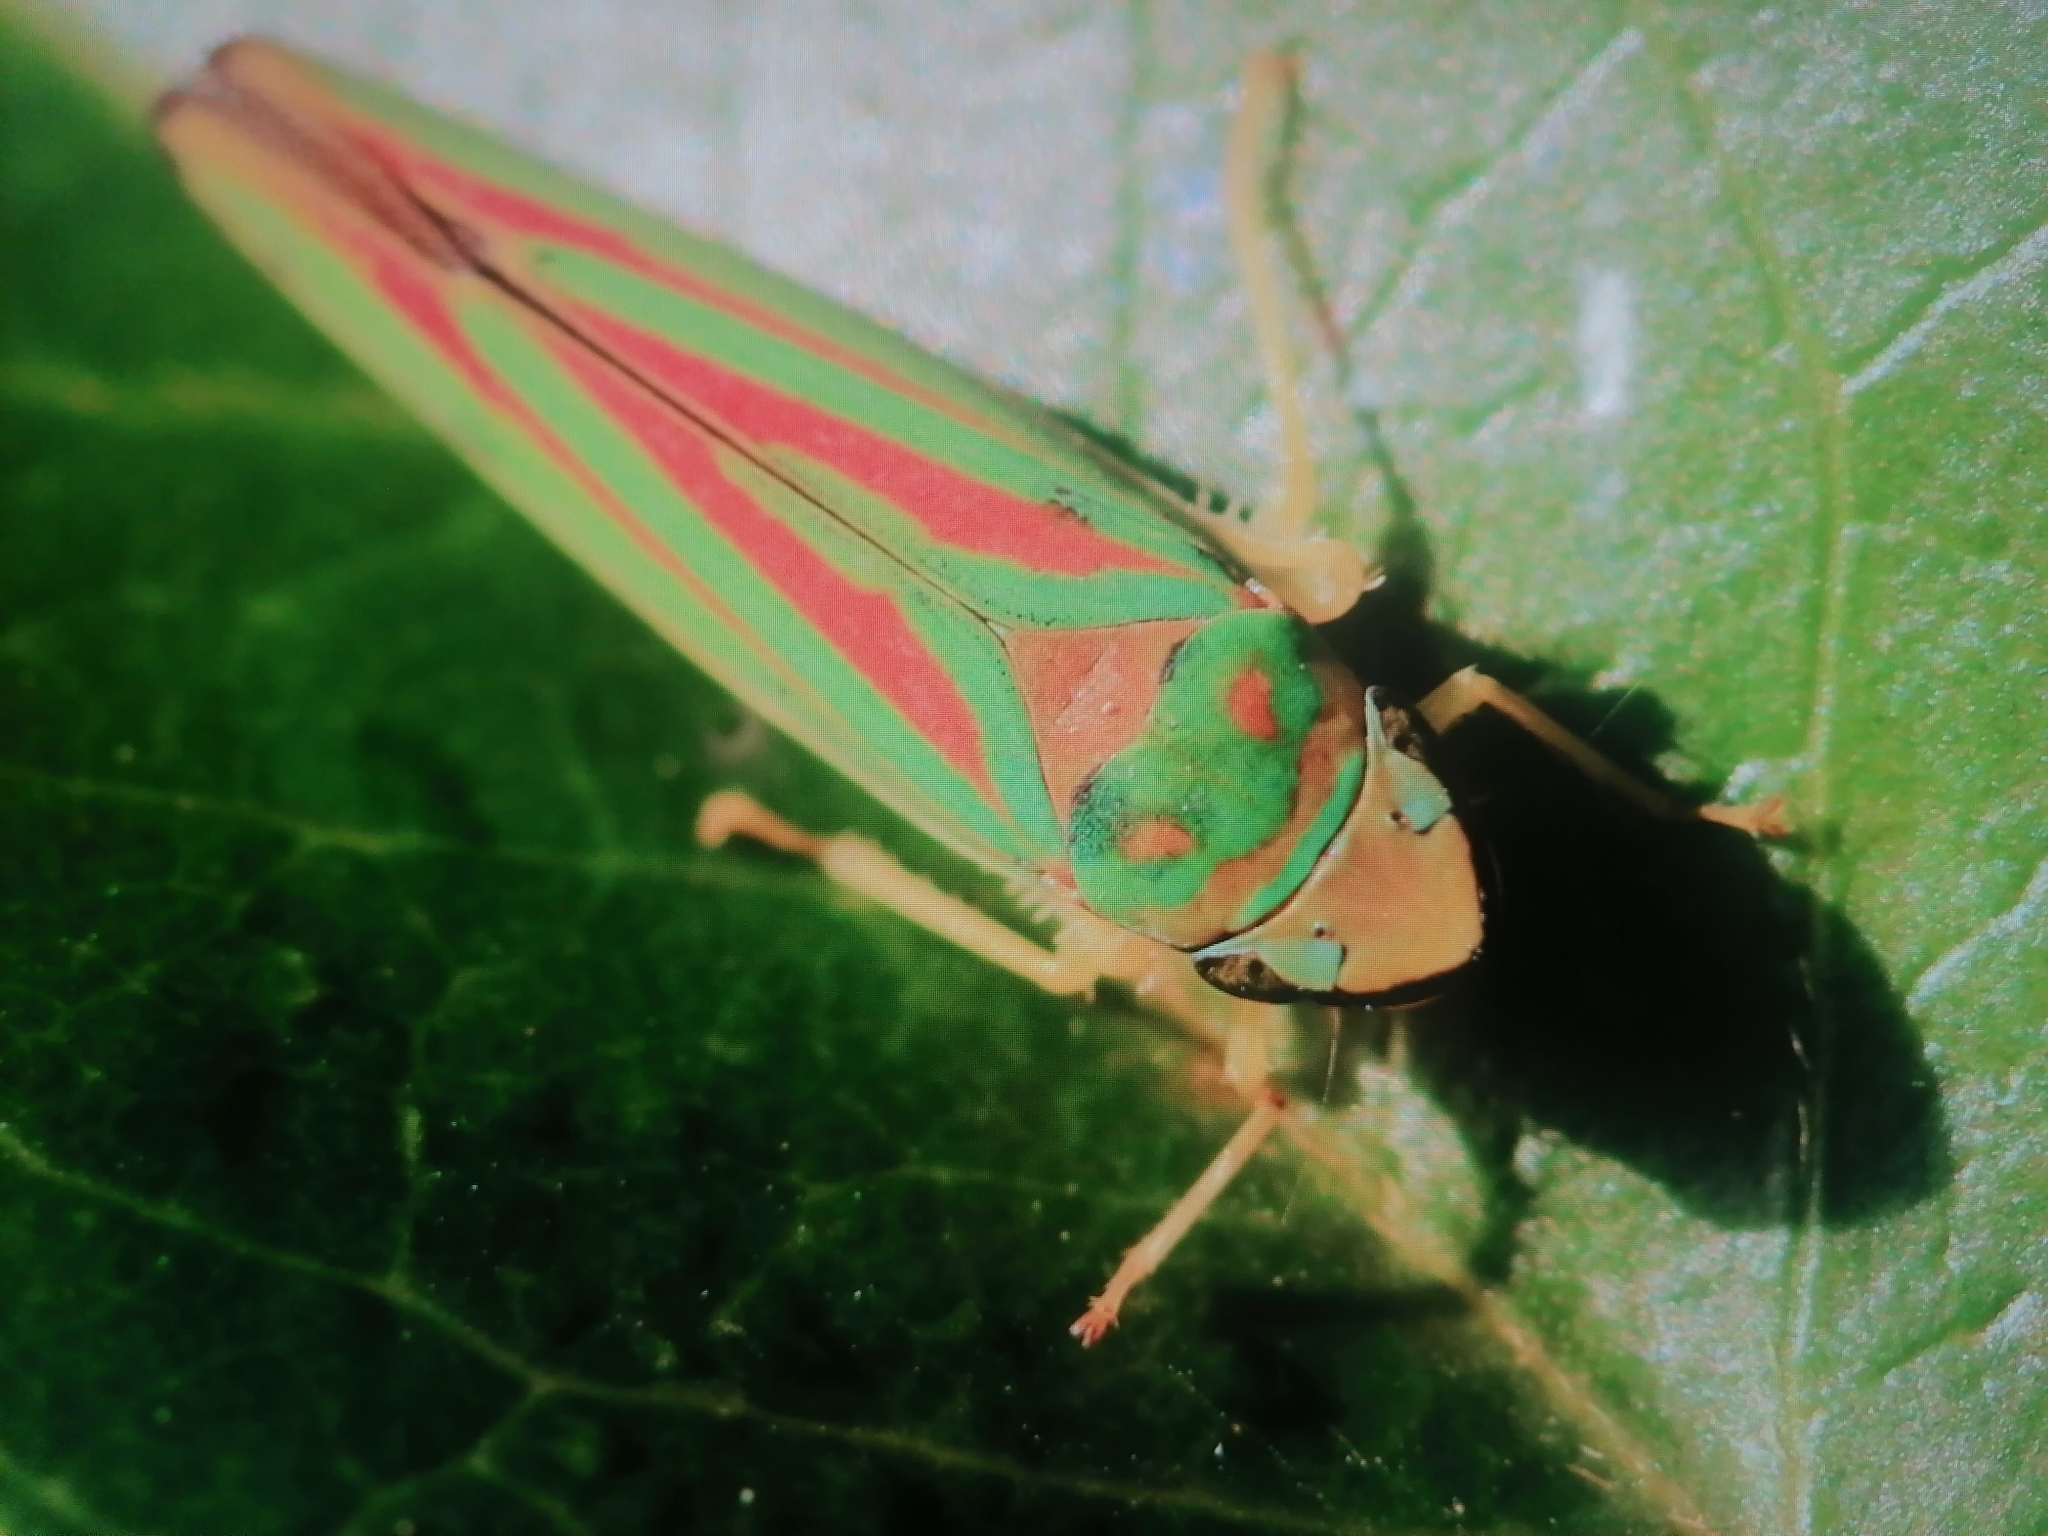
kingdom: Animalia
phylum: Arthropoda
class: Insecta
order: Hemiptera
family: Cicadellidae
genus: Graphocephala
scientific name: Graphocephala fennahi
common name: Rhododendron leafhopper
